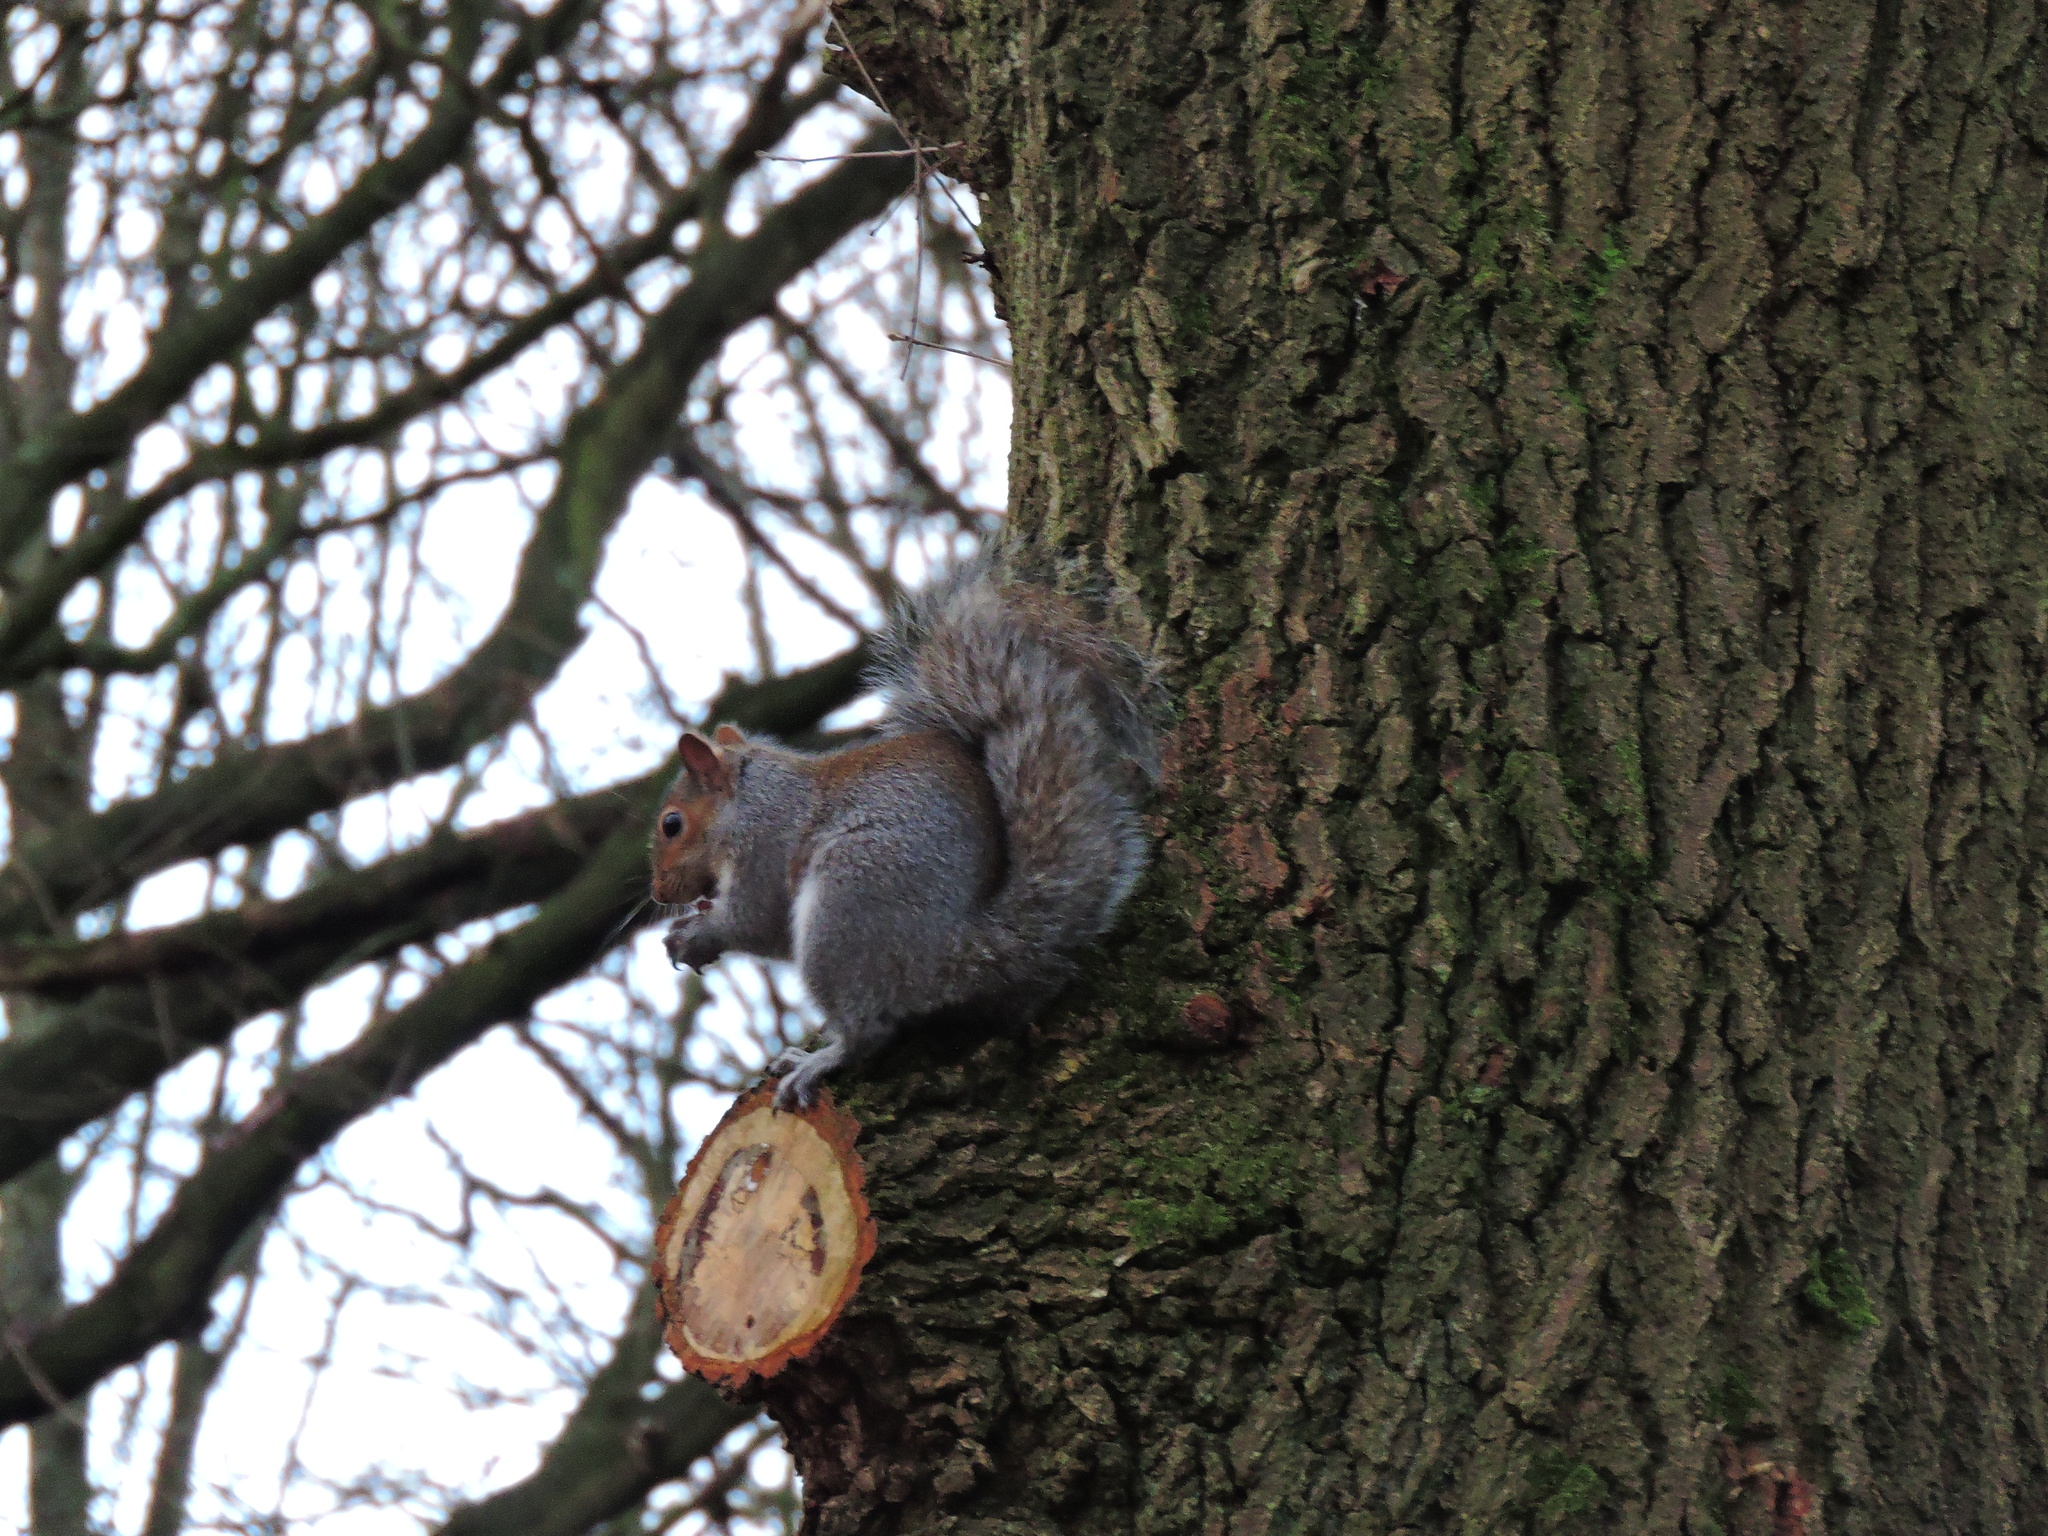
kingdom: Animalia
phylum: Chordata
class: Mammalia
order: Rodentia
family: Sciuridae
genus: Sciurus
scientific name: Sciurus carolinensis
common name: Eastern gray squirrel
